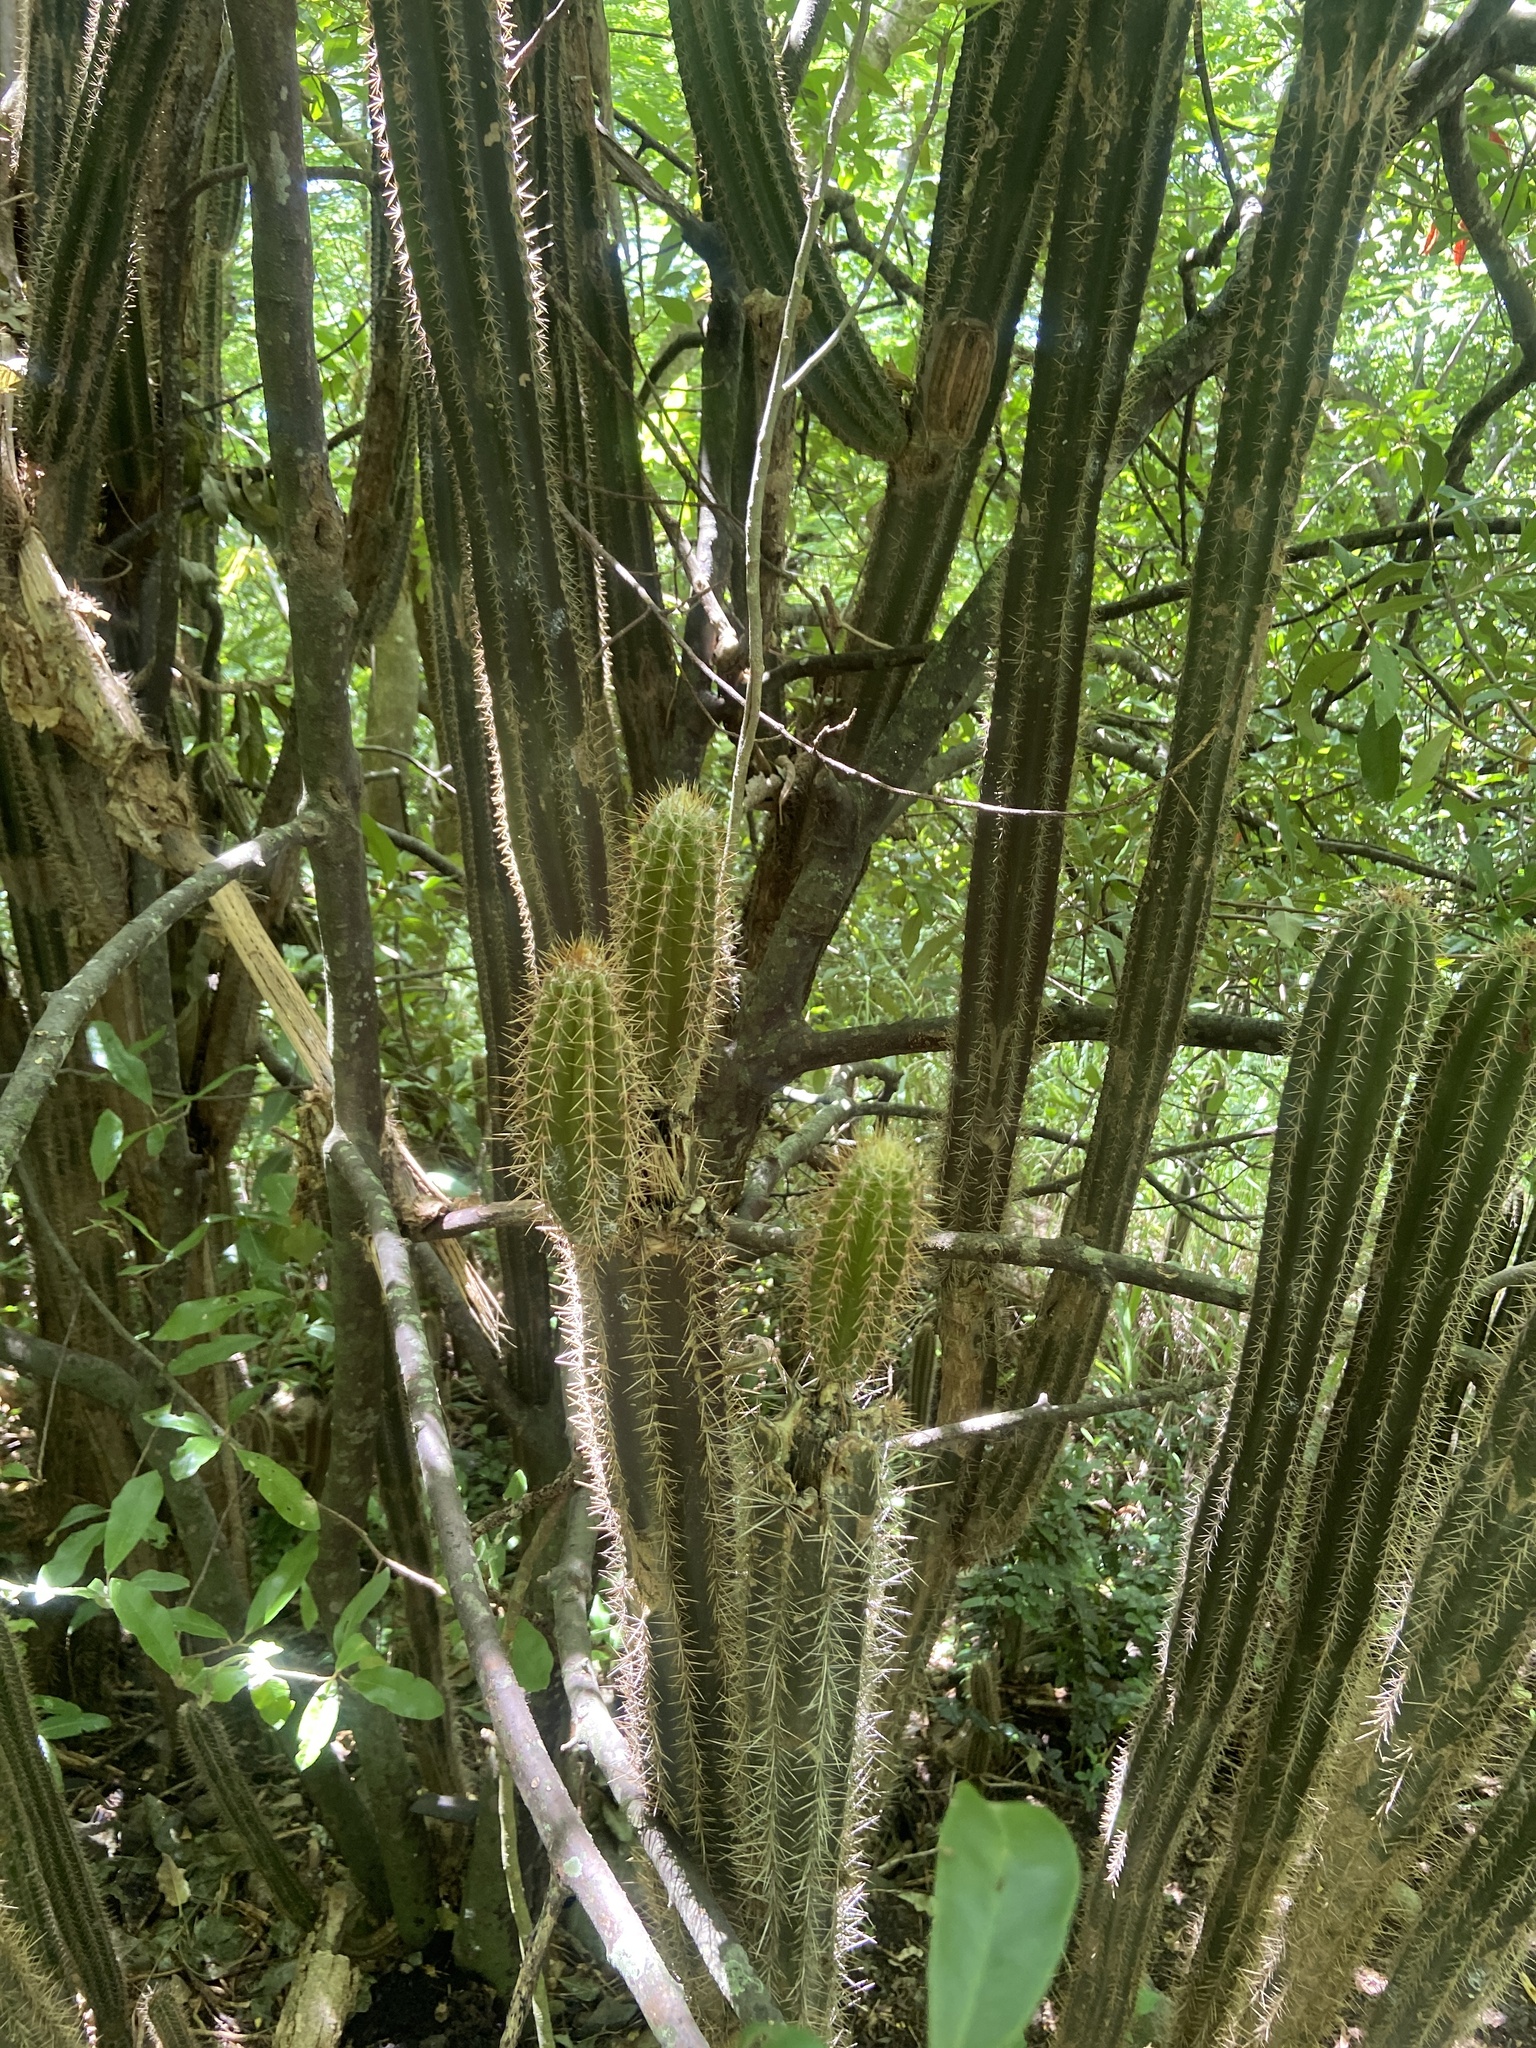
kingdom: Plantae
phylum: Tracheophyta
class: Magnoliopsida
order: Caryophyllales
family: Cactaceae
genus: Pilosocereus
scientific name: Pilosocereus curtisii
